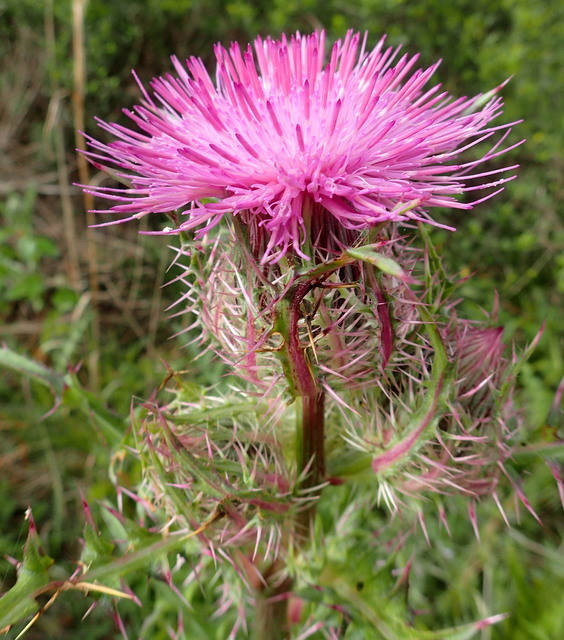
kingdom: Plantae
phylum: Tracheophyta
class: Magnoliopsida
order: Asterales
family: Asteraceae
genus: Cirsium
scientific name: Cirsium horridulum
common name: Bristly thistle
